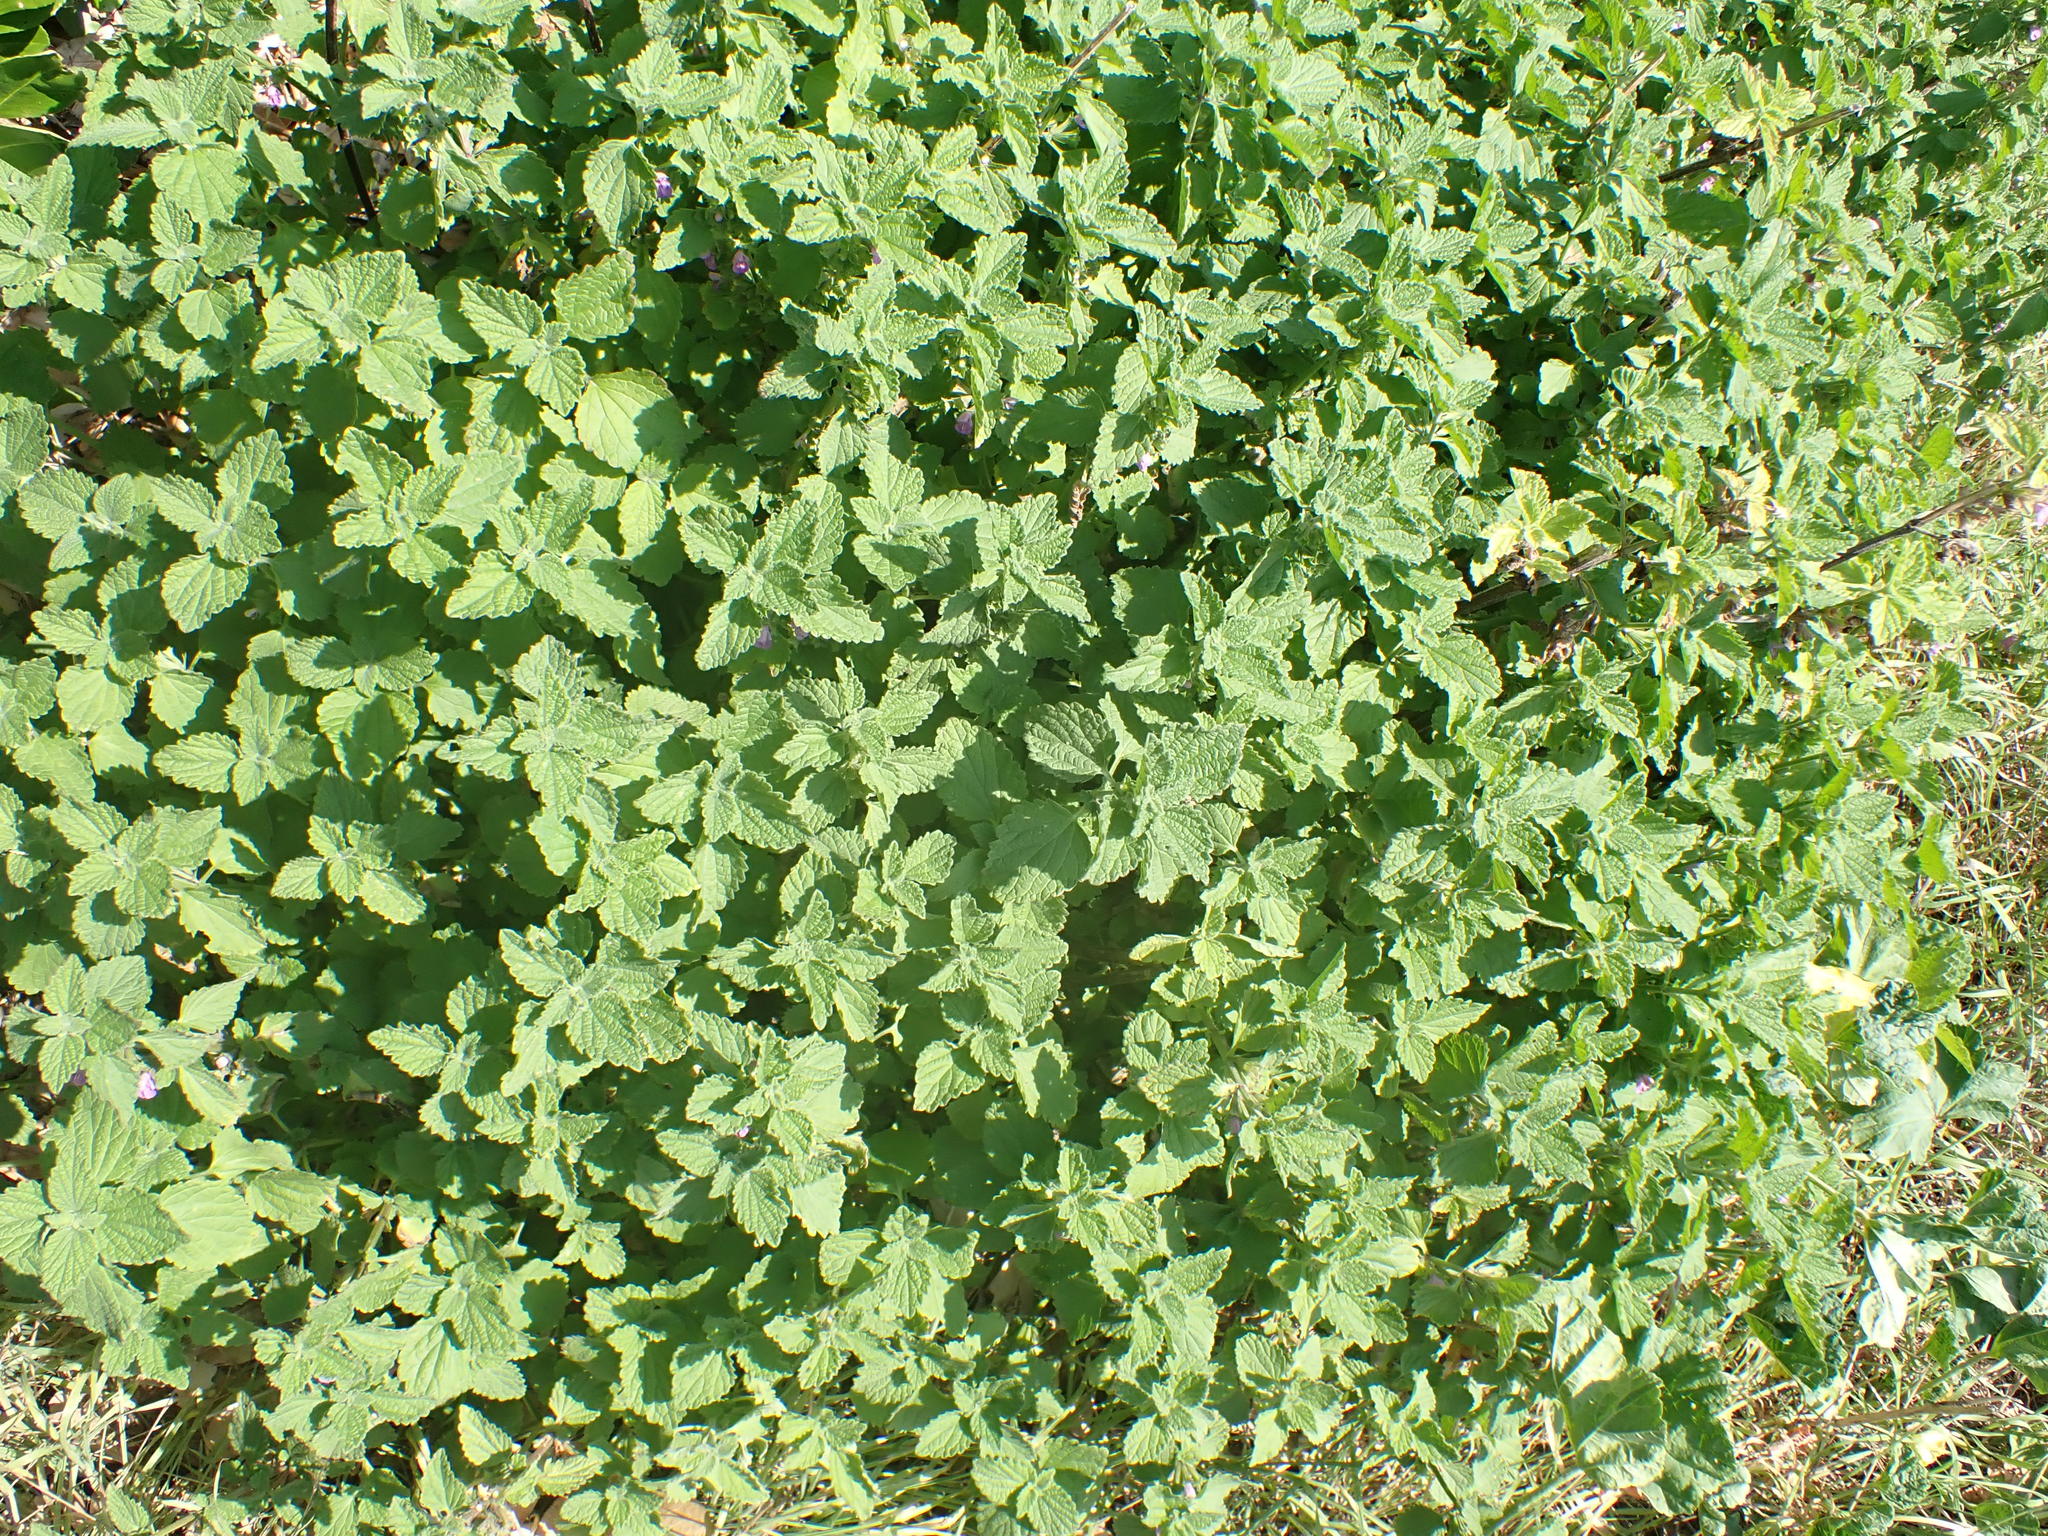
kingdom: Plantae
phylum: Tracheophyta
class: Magnoliopsida
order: Lamiales
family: Lamiaceae
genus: Ballota
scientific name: Ballota nigra
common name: Black horehound
